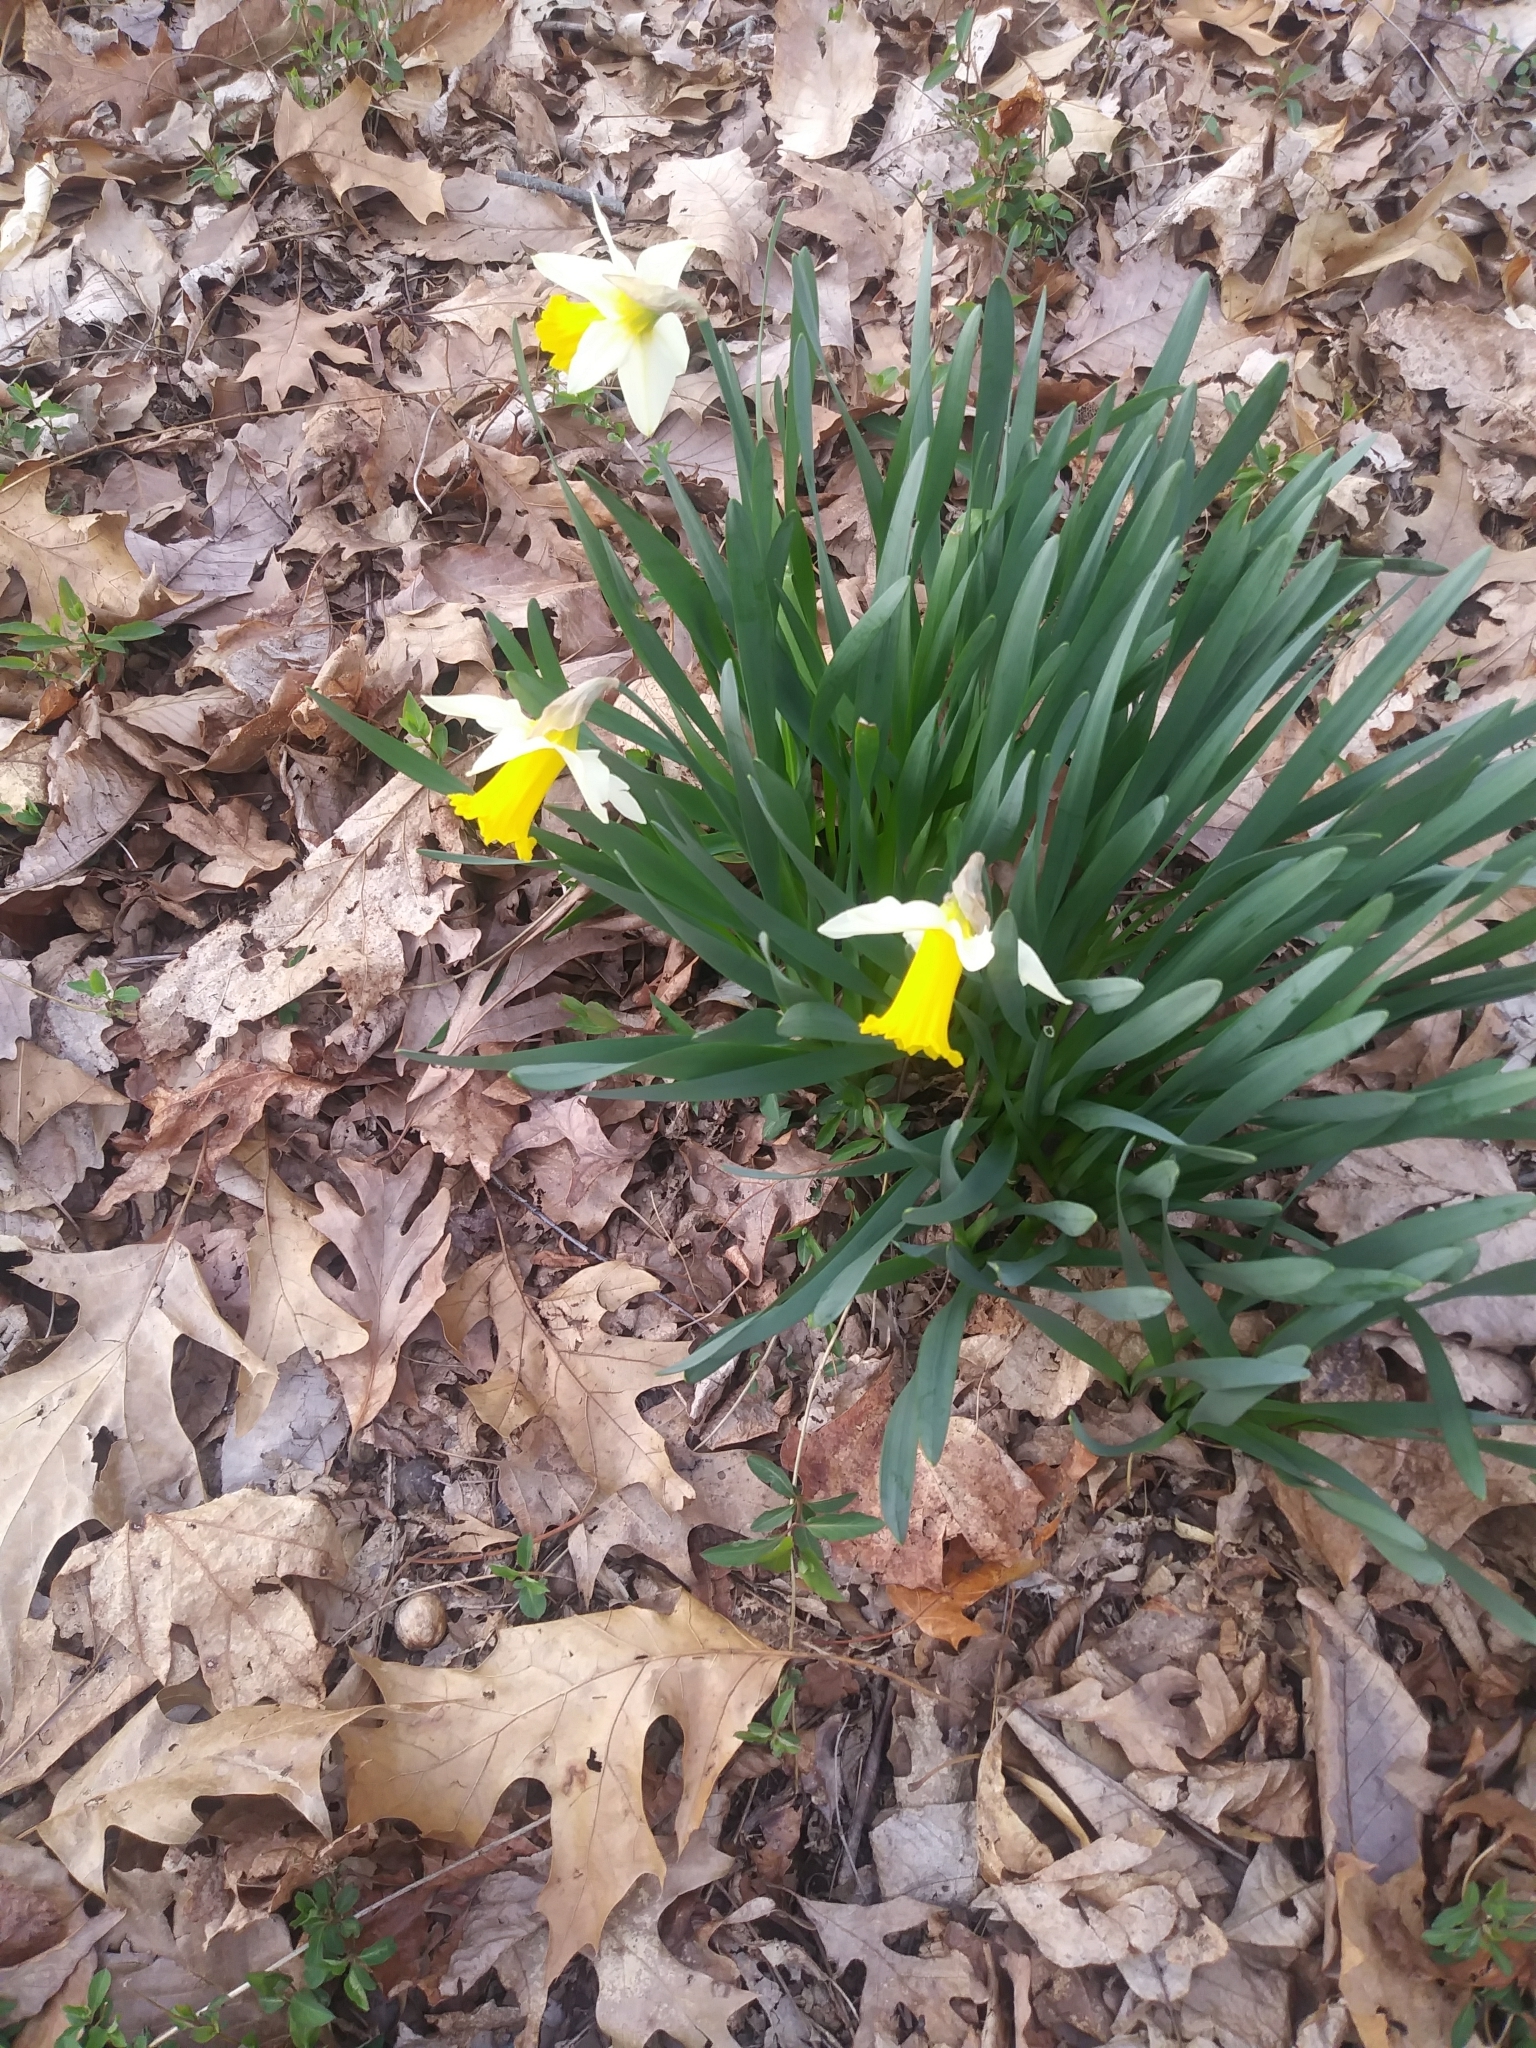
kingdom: Plantae
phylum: Tracheophyta
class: Liliopsida
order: Asparagales
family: Amaryllidaceae
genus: Narcissus
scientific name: Narcissus
